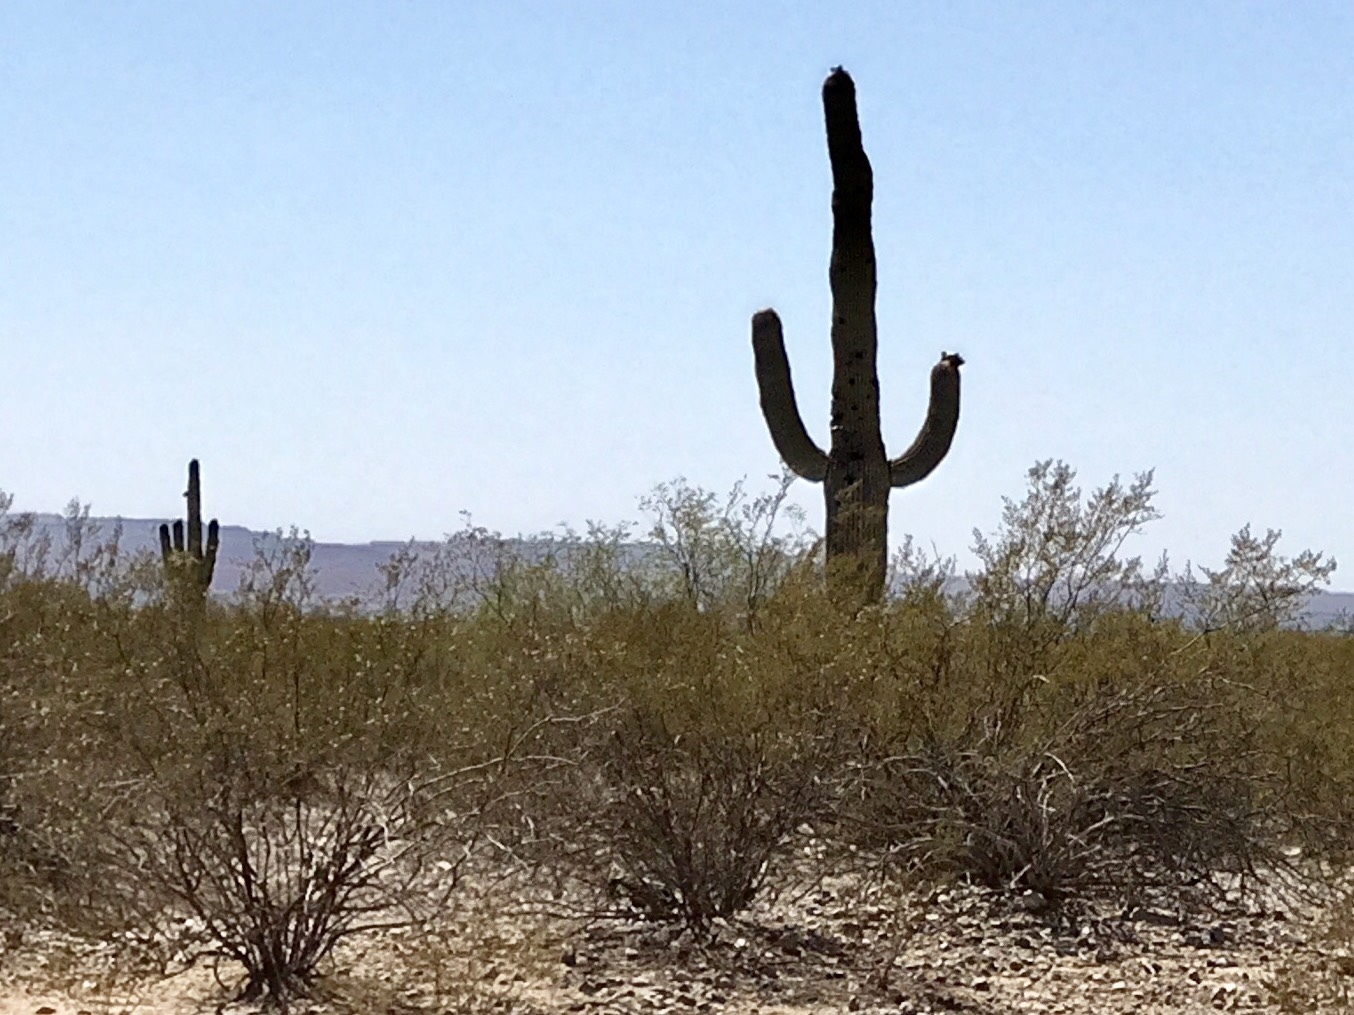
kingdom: Plantae
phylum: Tracheophyta
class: Magnoliopsida
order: Caryophyllales
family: Cactaceae
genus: Carnegiea
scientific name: Carnegiea gigantea
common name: Saguaro
